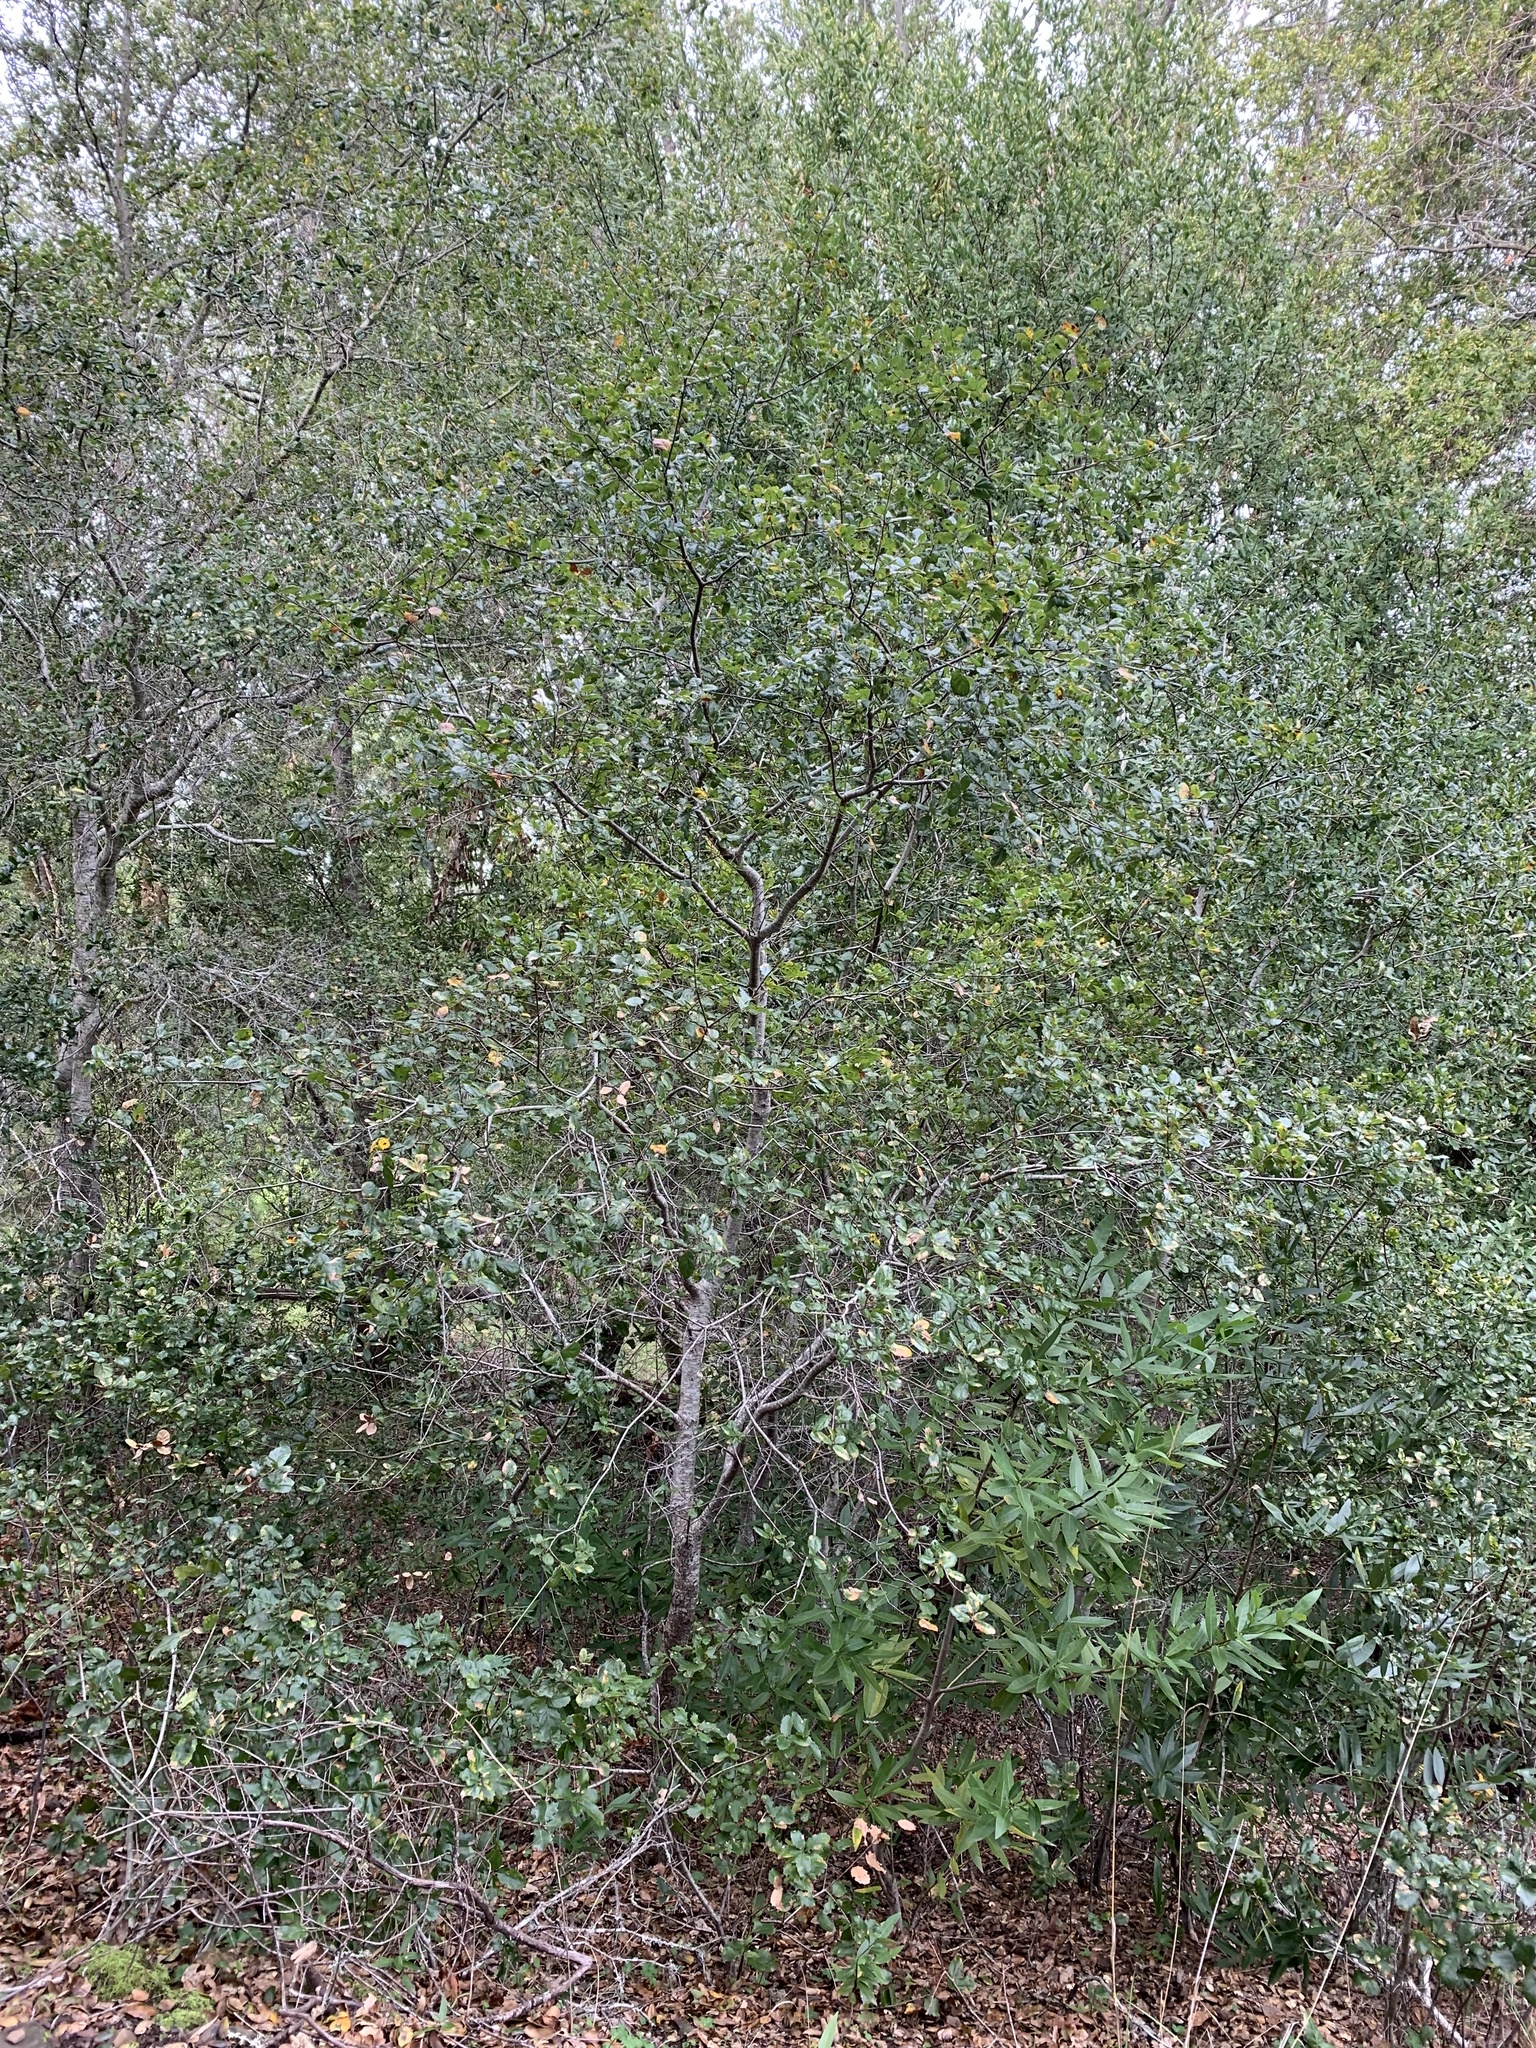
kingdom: Plantae
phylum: Tracheophyta
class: Magnoliopsida
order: Fagales
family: Fagaceae
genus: Quercus
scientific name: Quercus agrifolia
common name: California live oak
